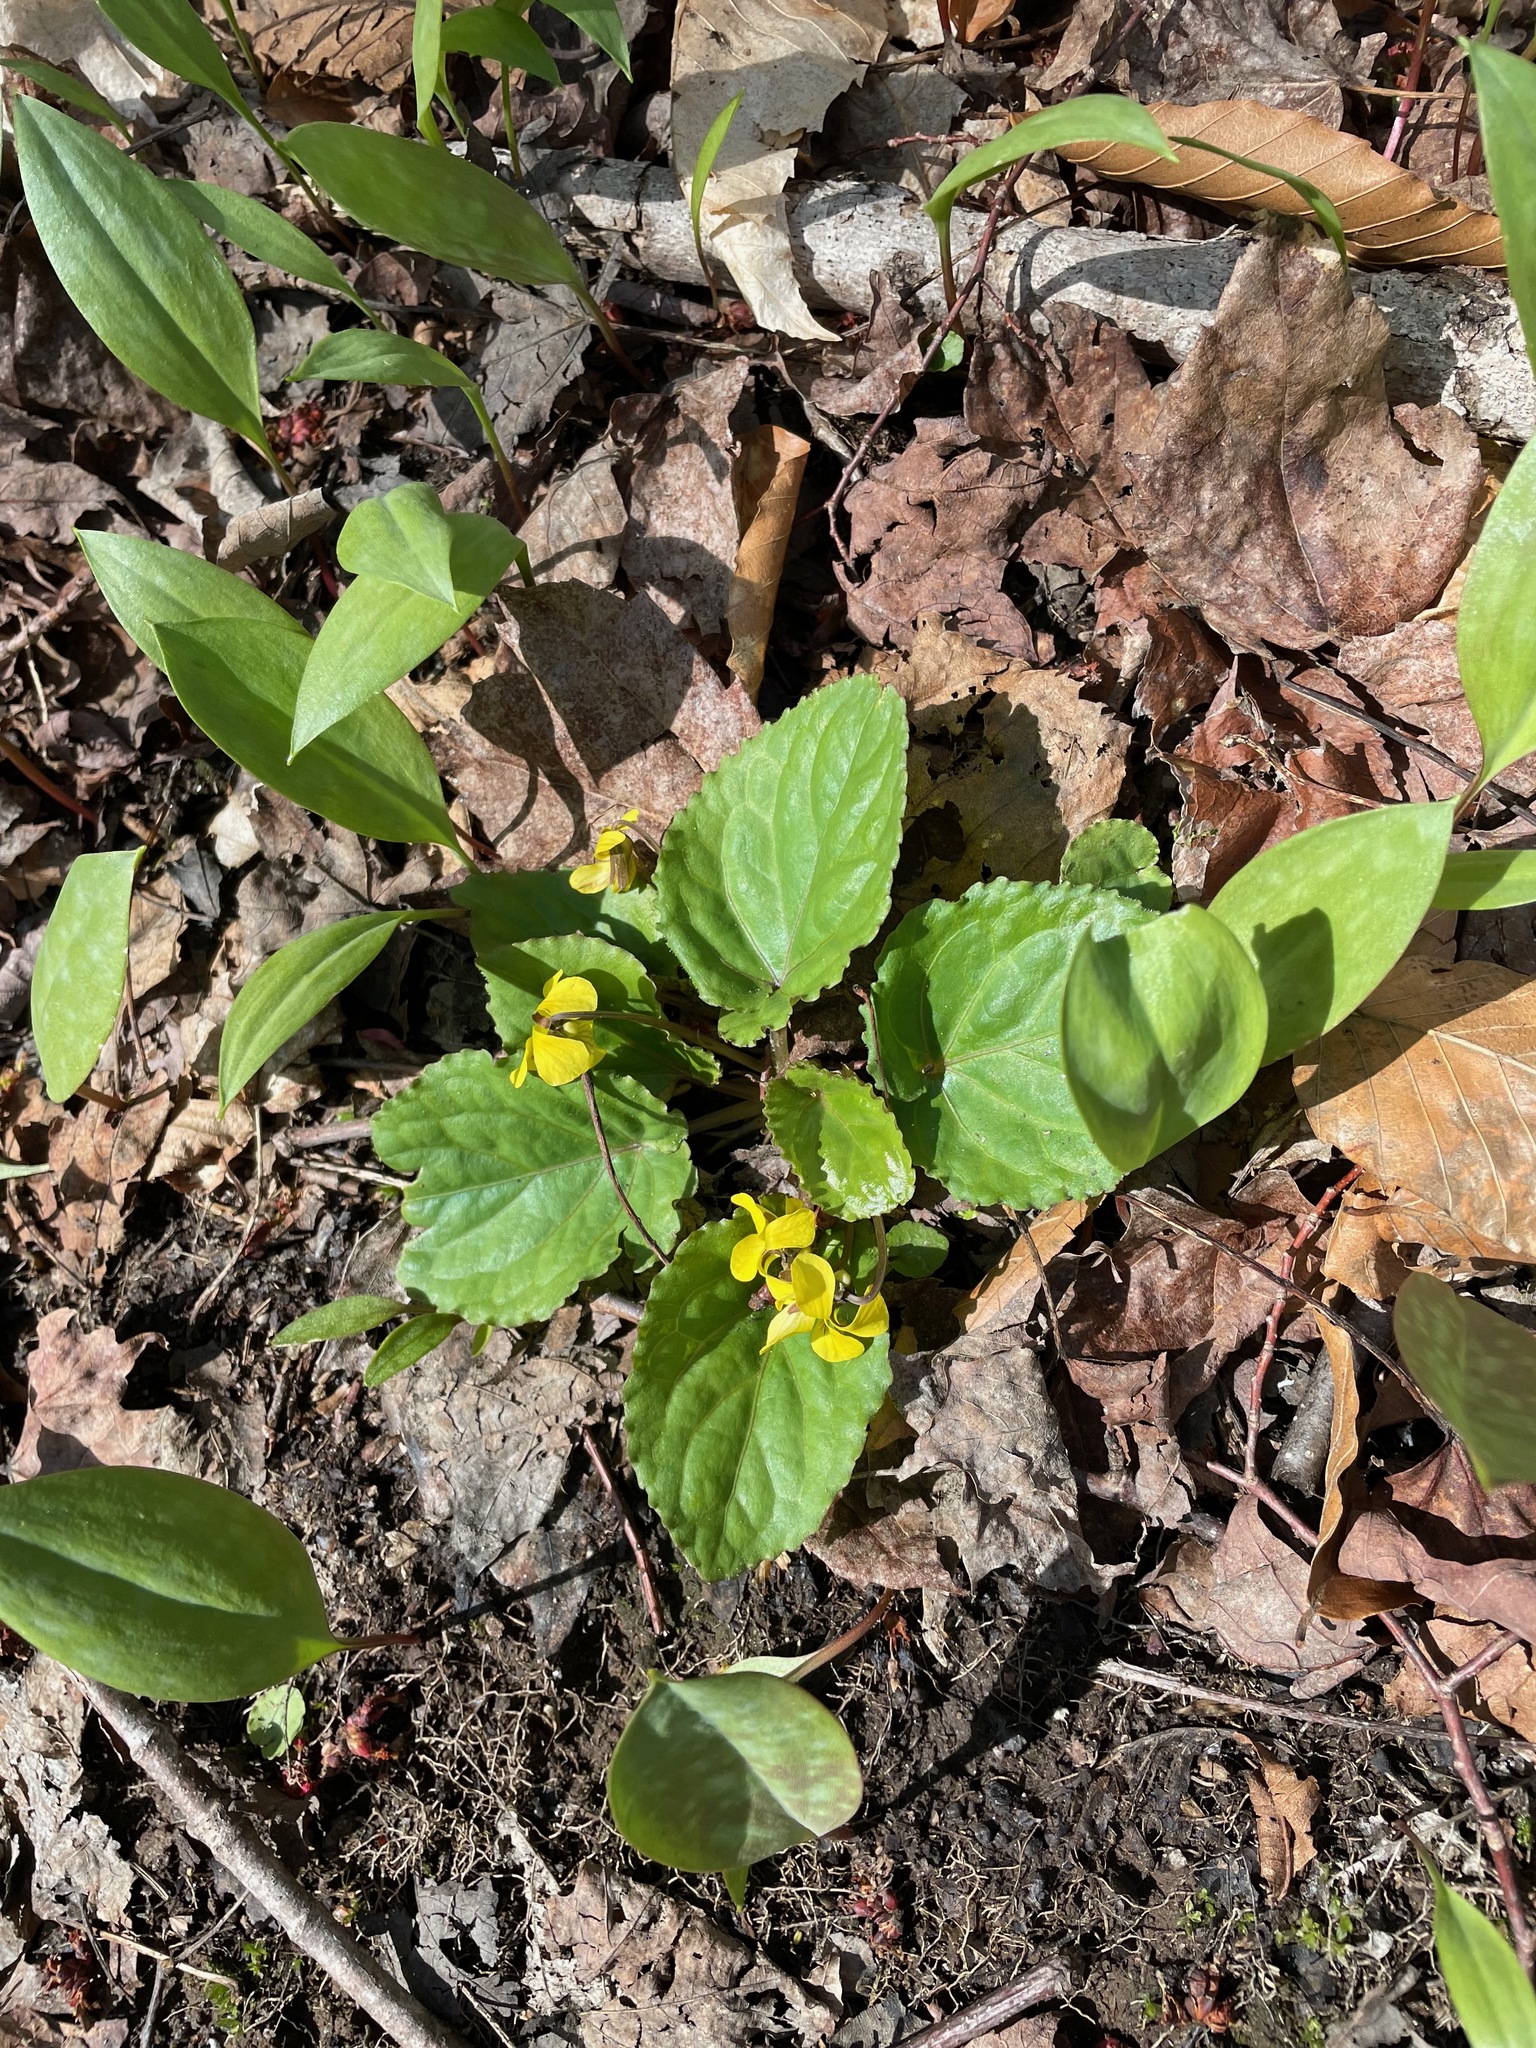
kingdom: Plantae
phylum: Tracheophyta
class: Magnoliopsida
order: Malpighiales
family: Violaceae
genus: Viola
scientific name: Viola rotundifolia
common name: Early yellow violet
